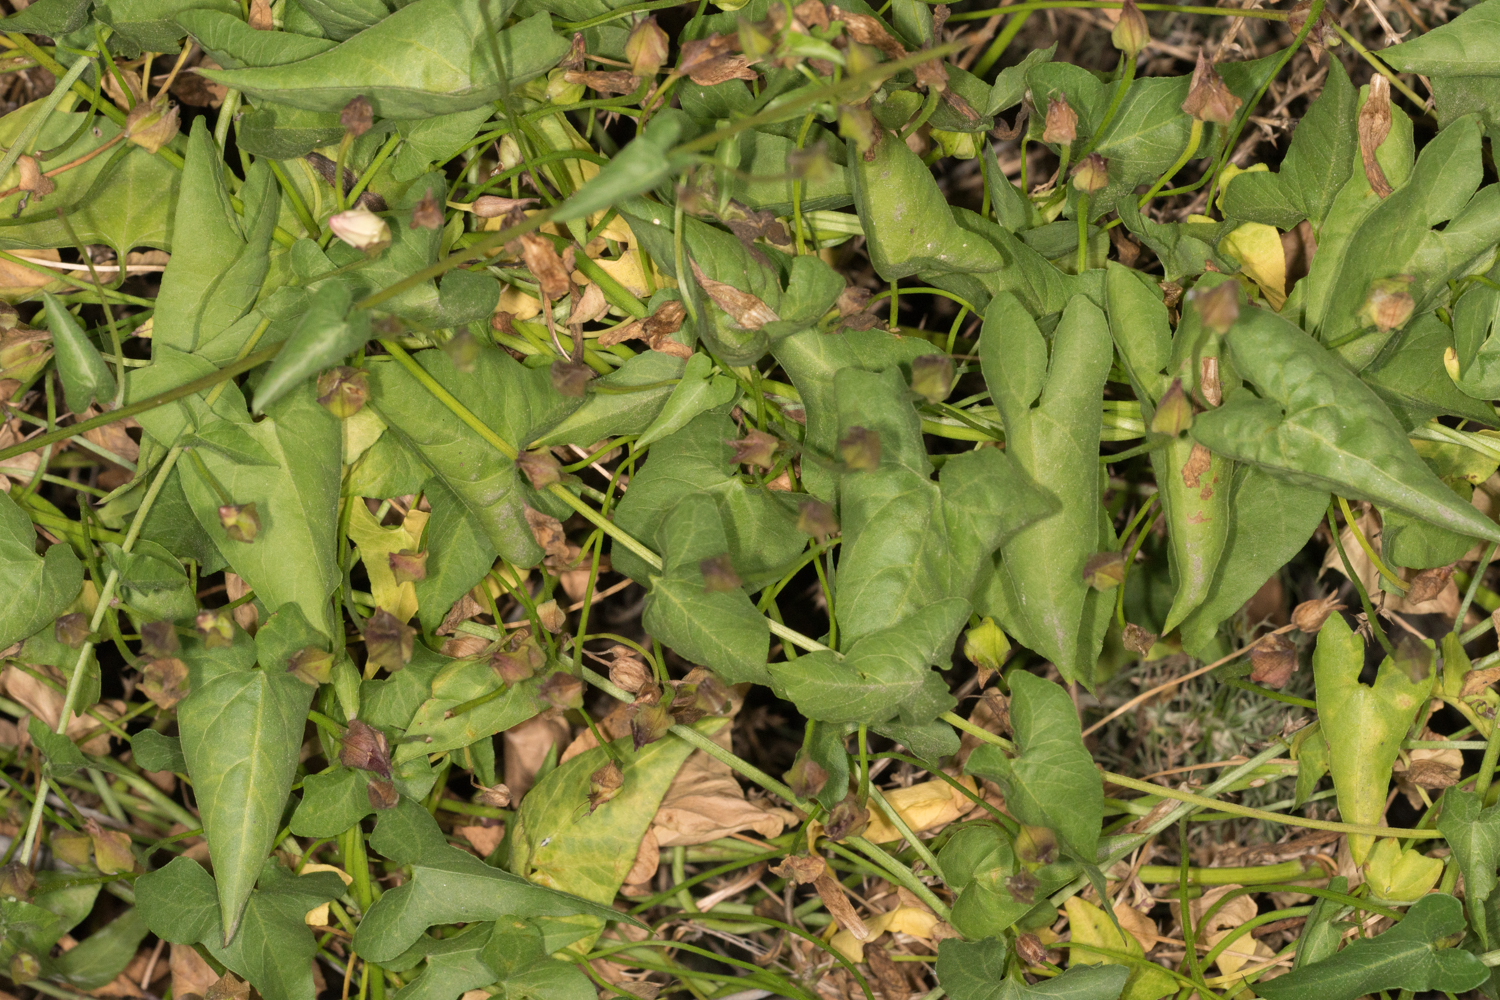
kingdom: Plantae
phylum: Tracheophyta
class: Magnoliopsida
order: Solanales
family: Convolvulaceae
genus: Calystegia
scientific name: Calystegia macrostegia
